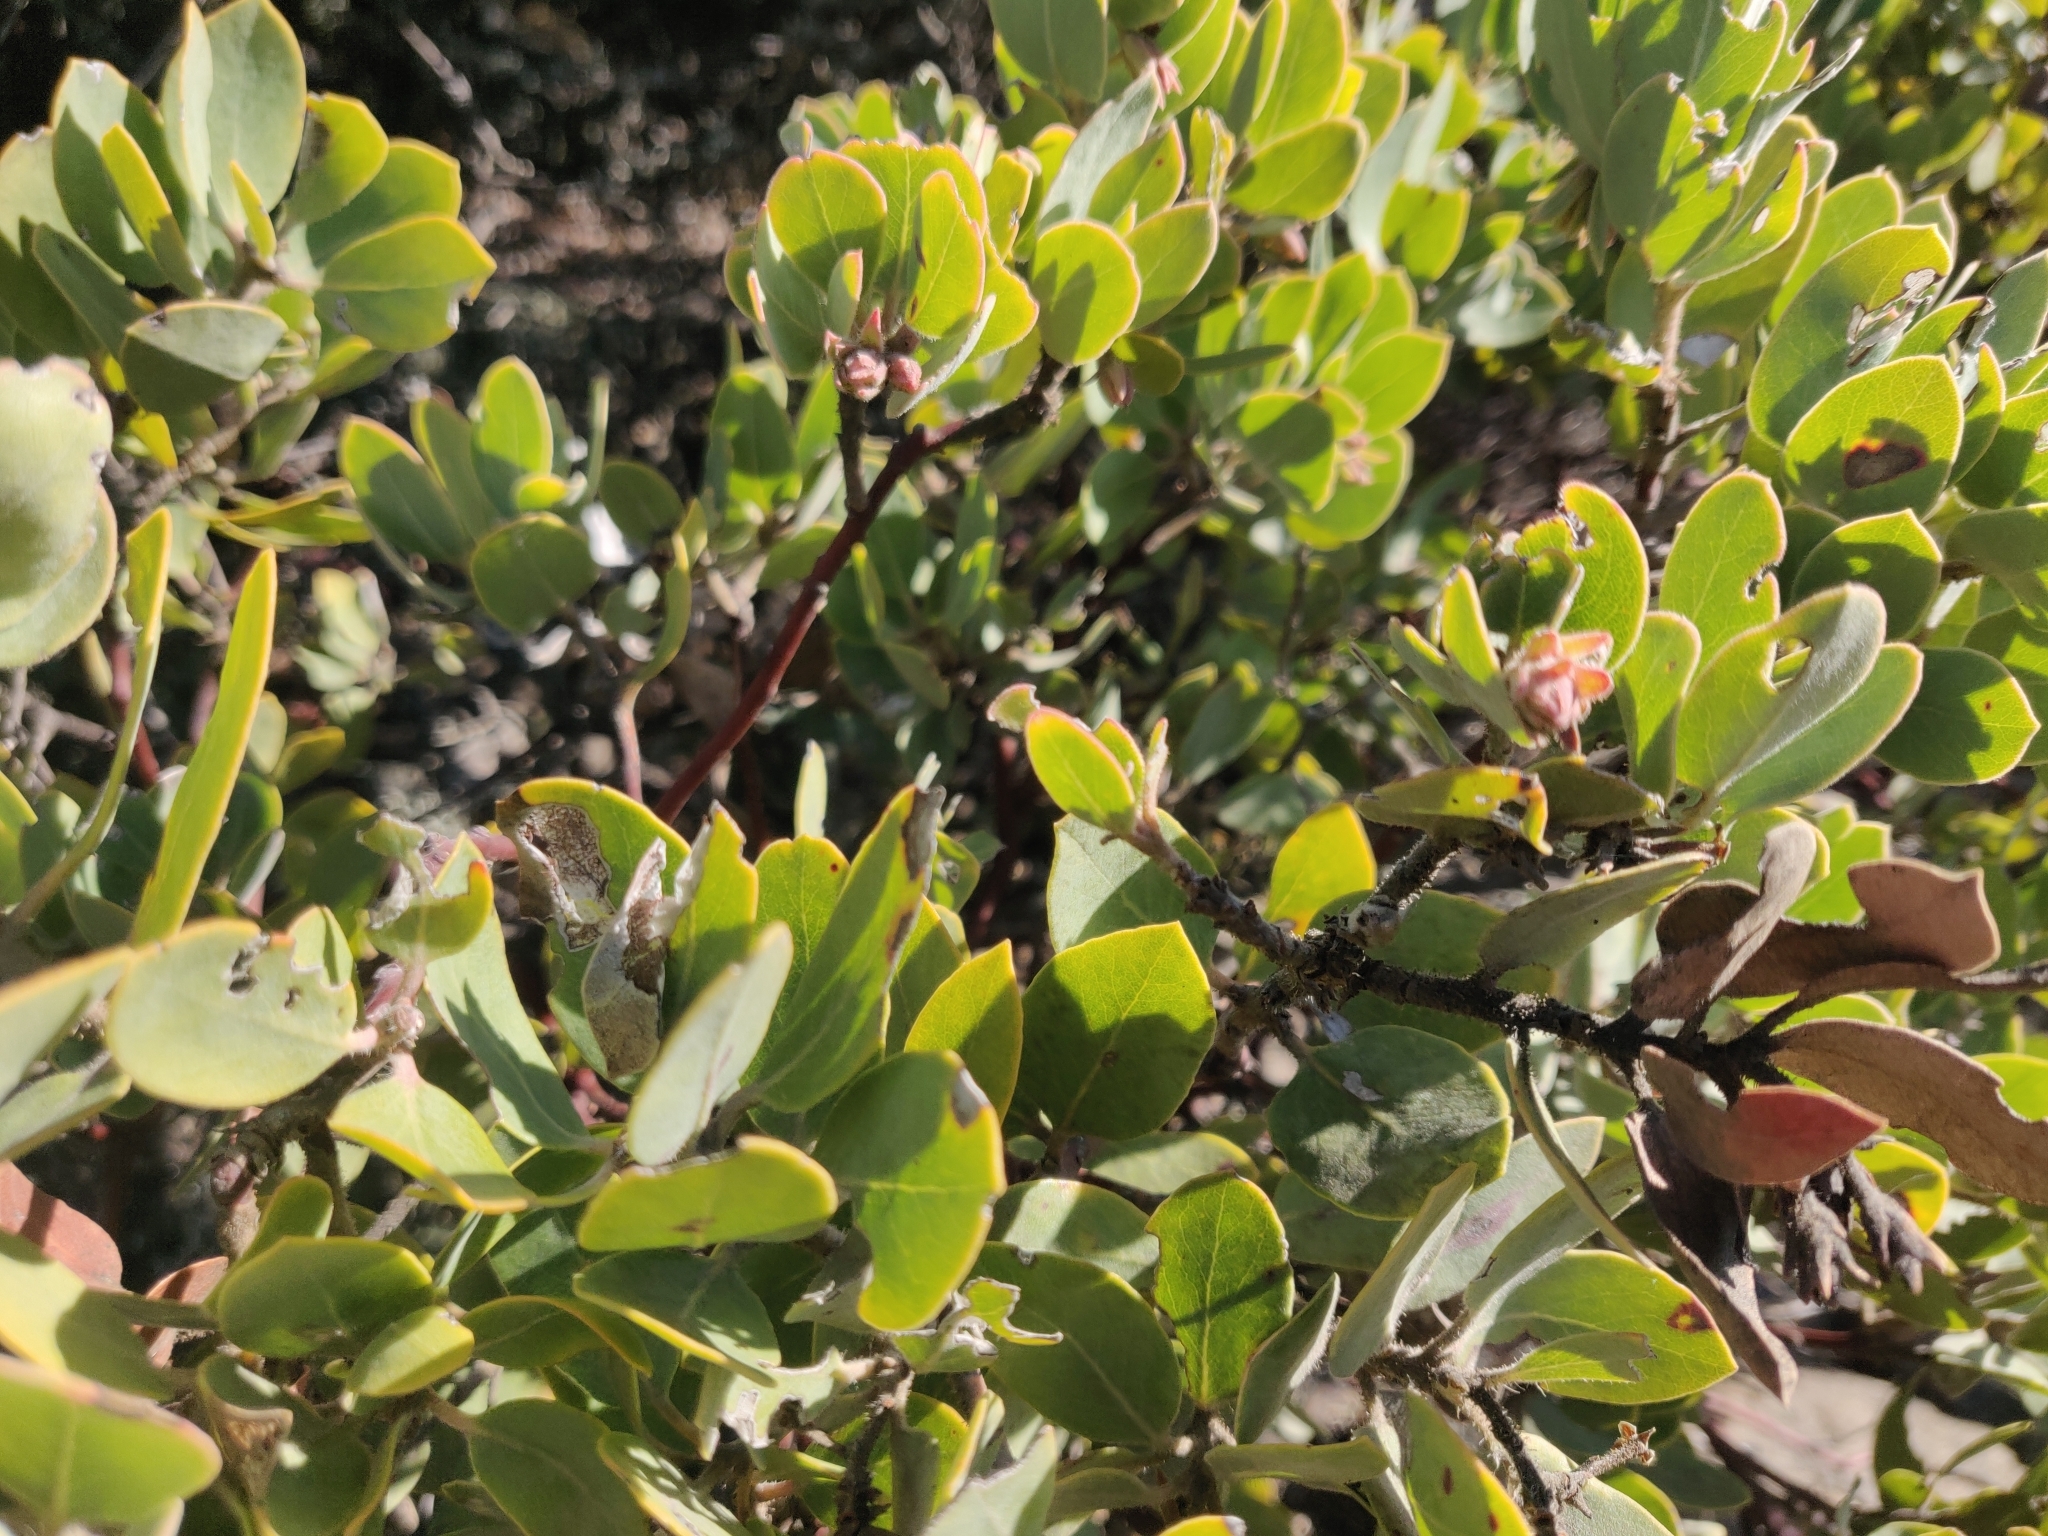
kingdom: Plantae
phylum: Tracheophyta
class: Magnoliopsida
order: Ericales
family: Ericaceae
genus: Arctostaphylos
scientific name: Arctostaphylos glandulosa
